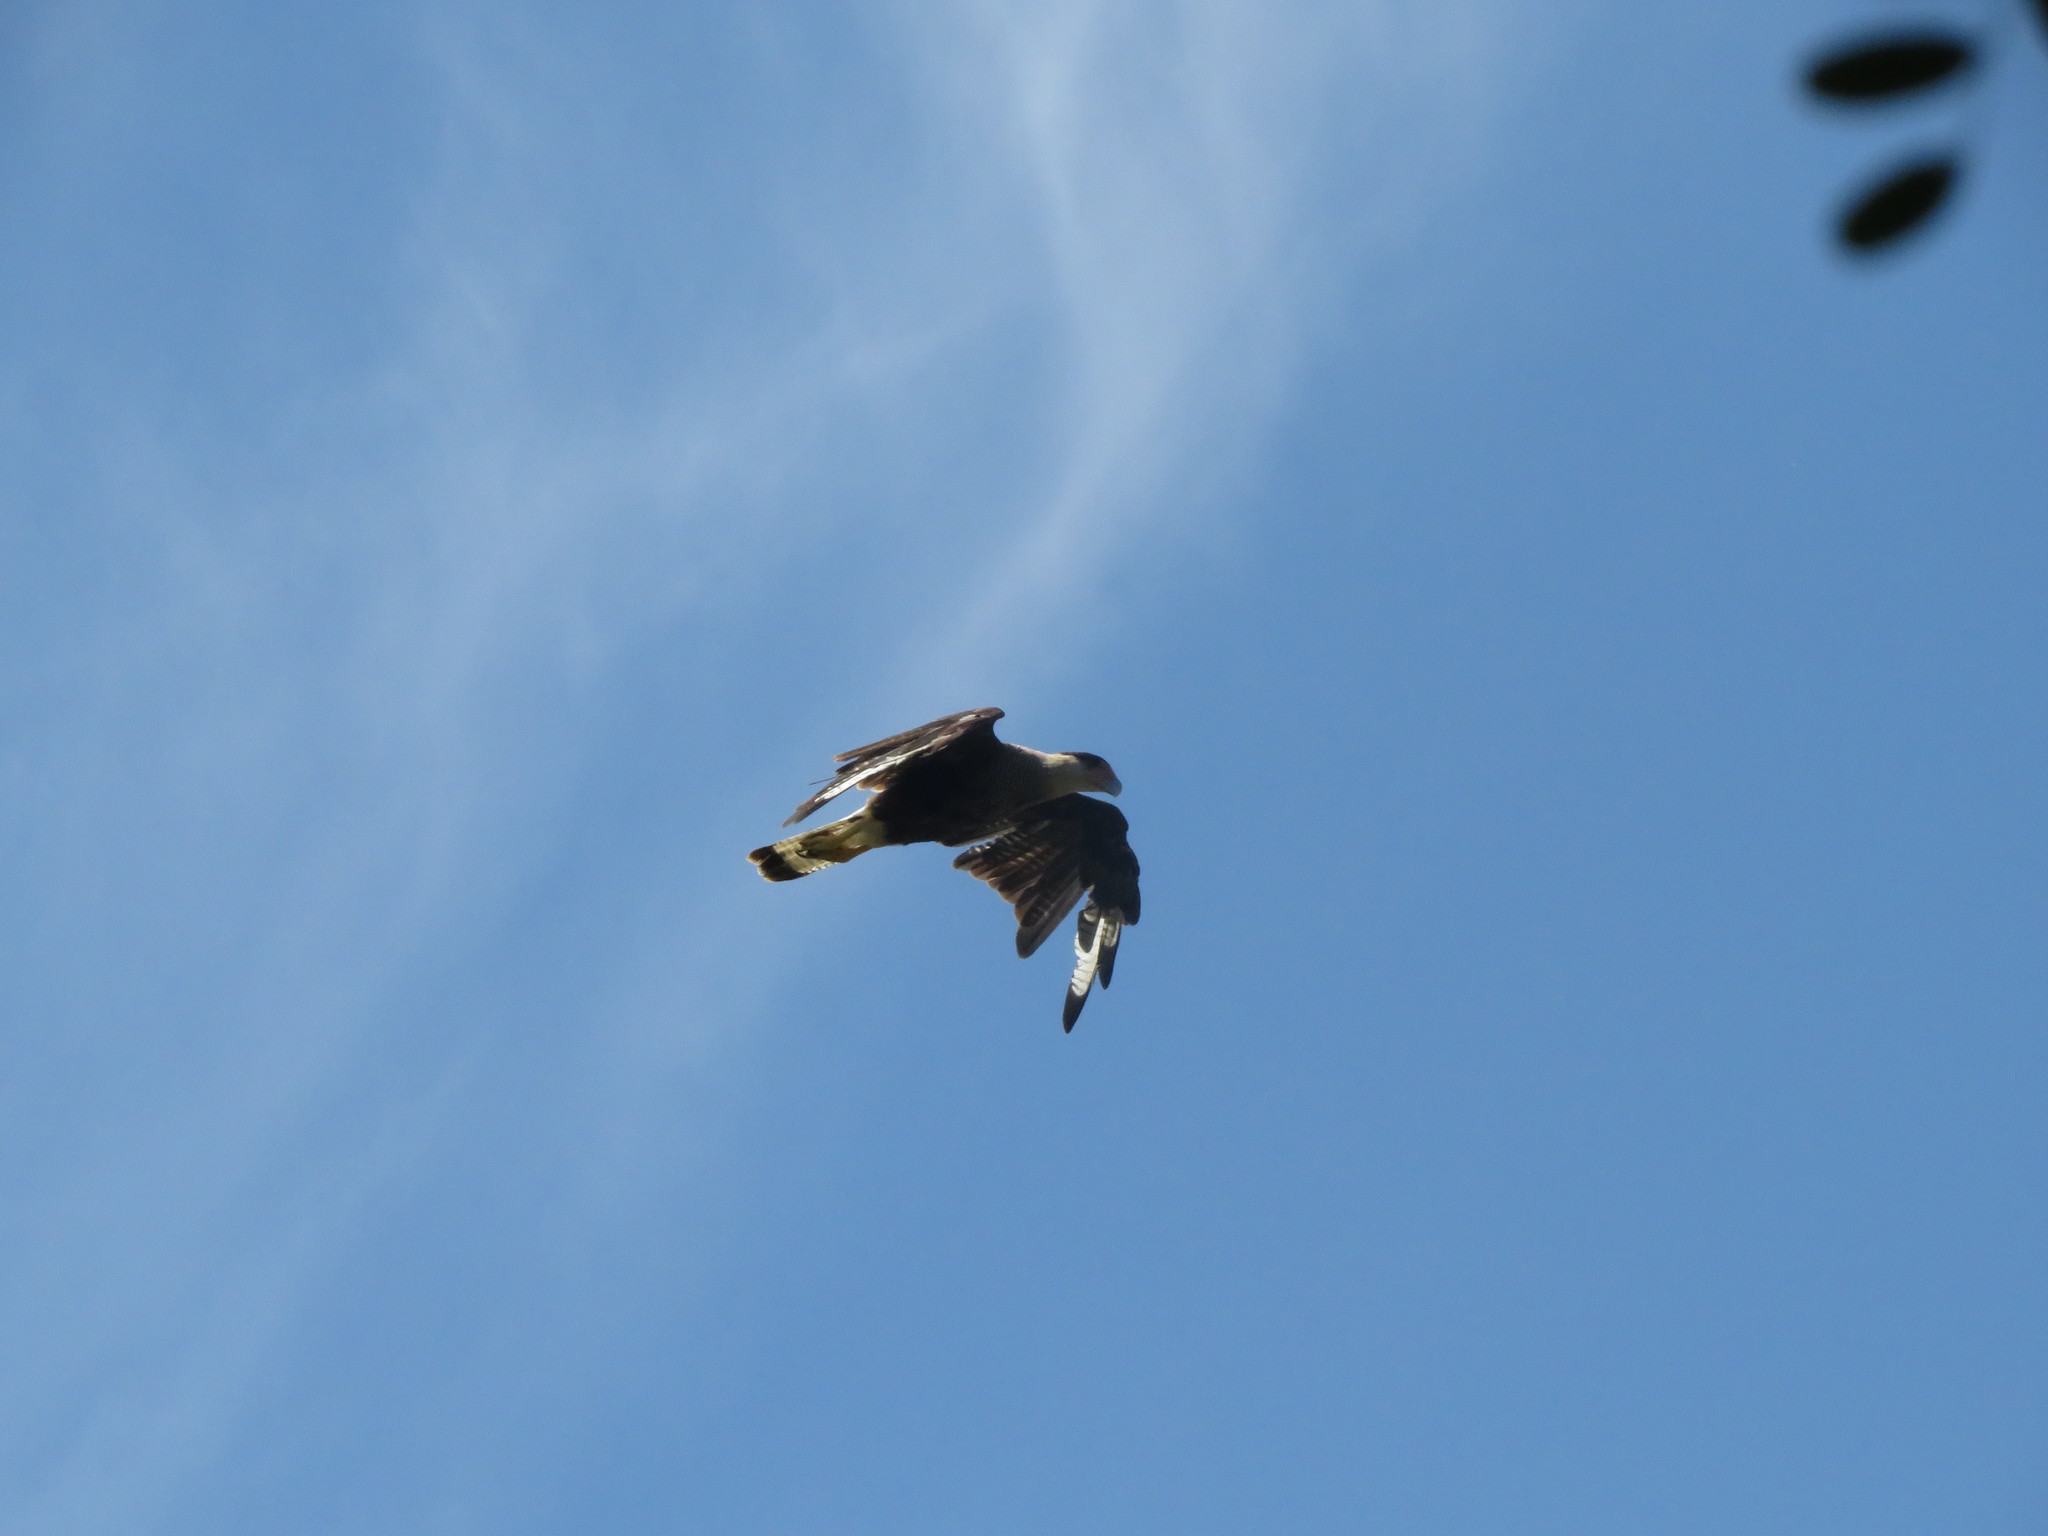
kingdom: Animalia
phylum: Chordata
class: Aves
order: Falconiformes
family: Falconidae
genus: Caracara
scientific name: Caracara plancus
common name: Southern caracara
